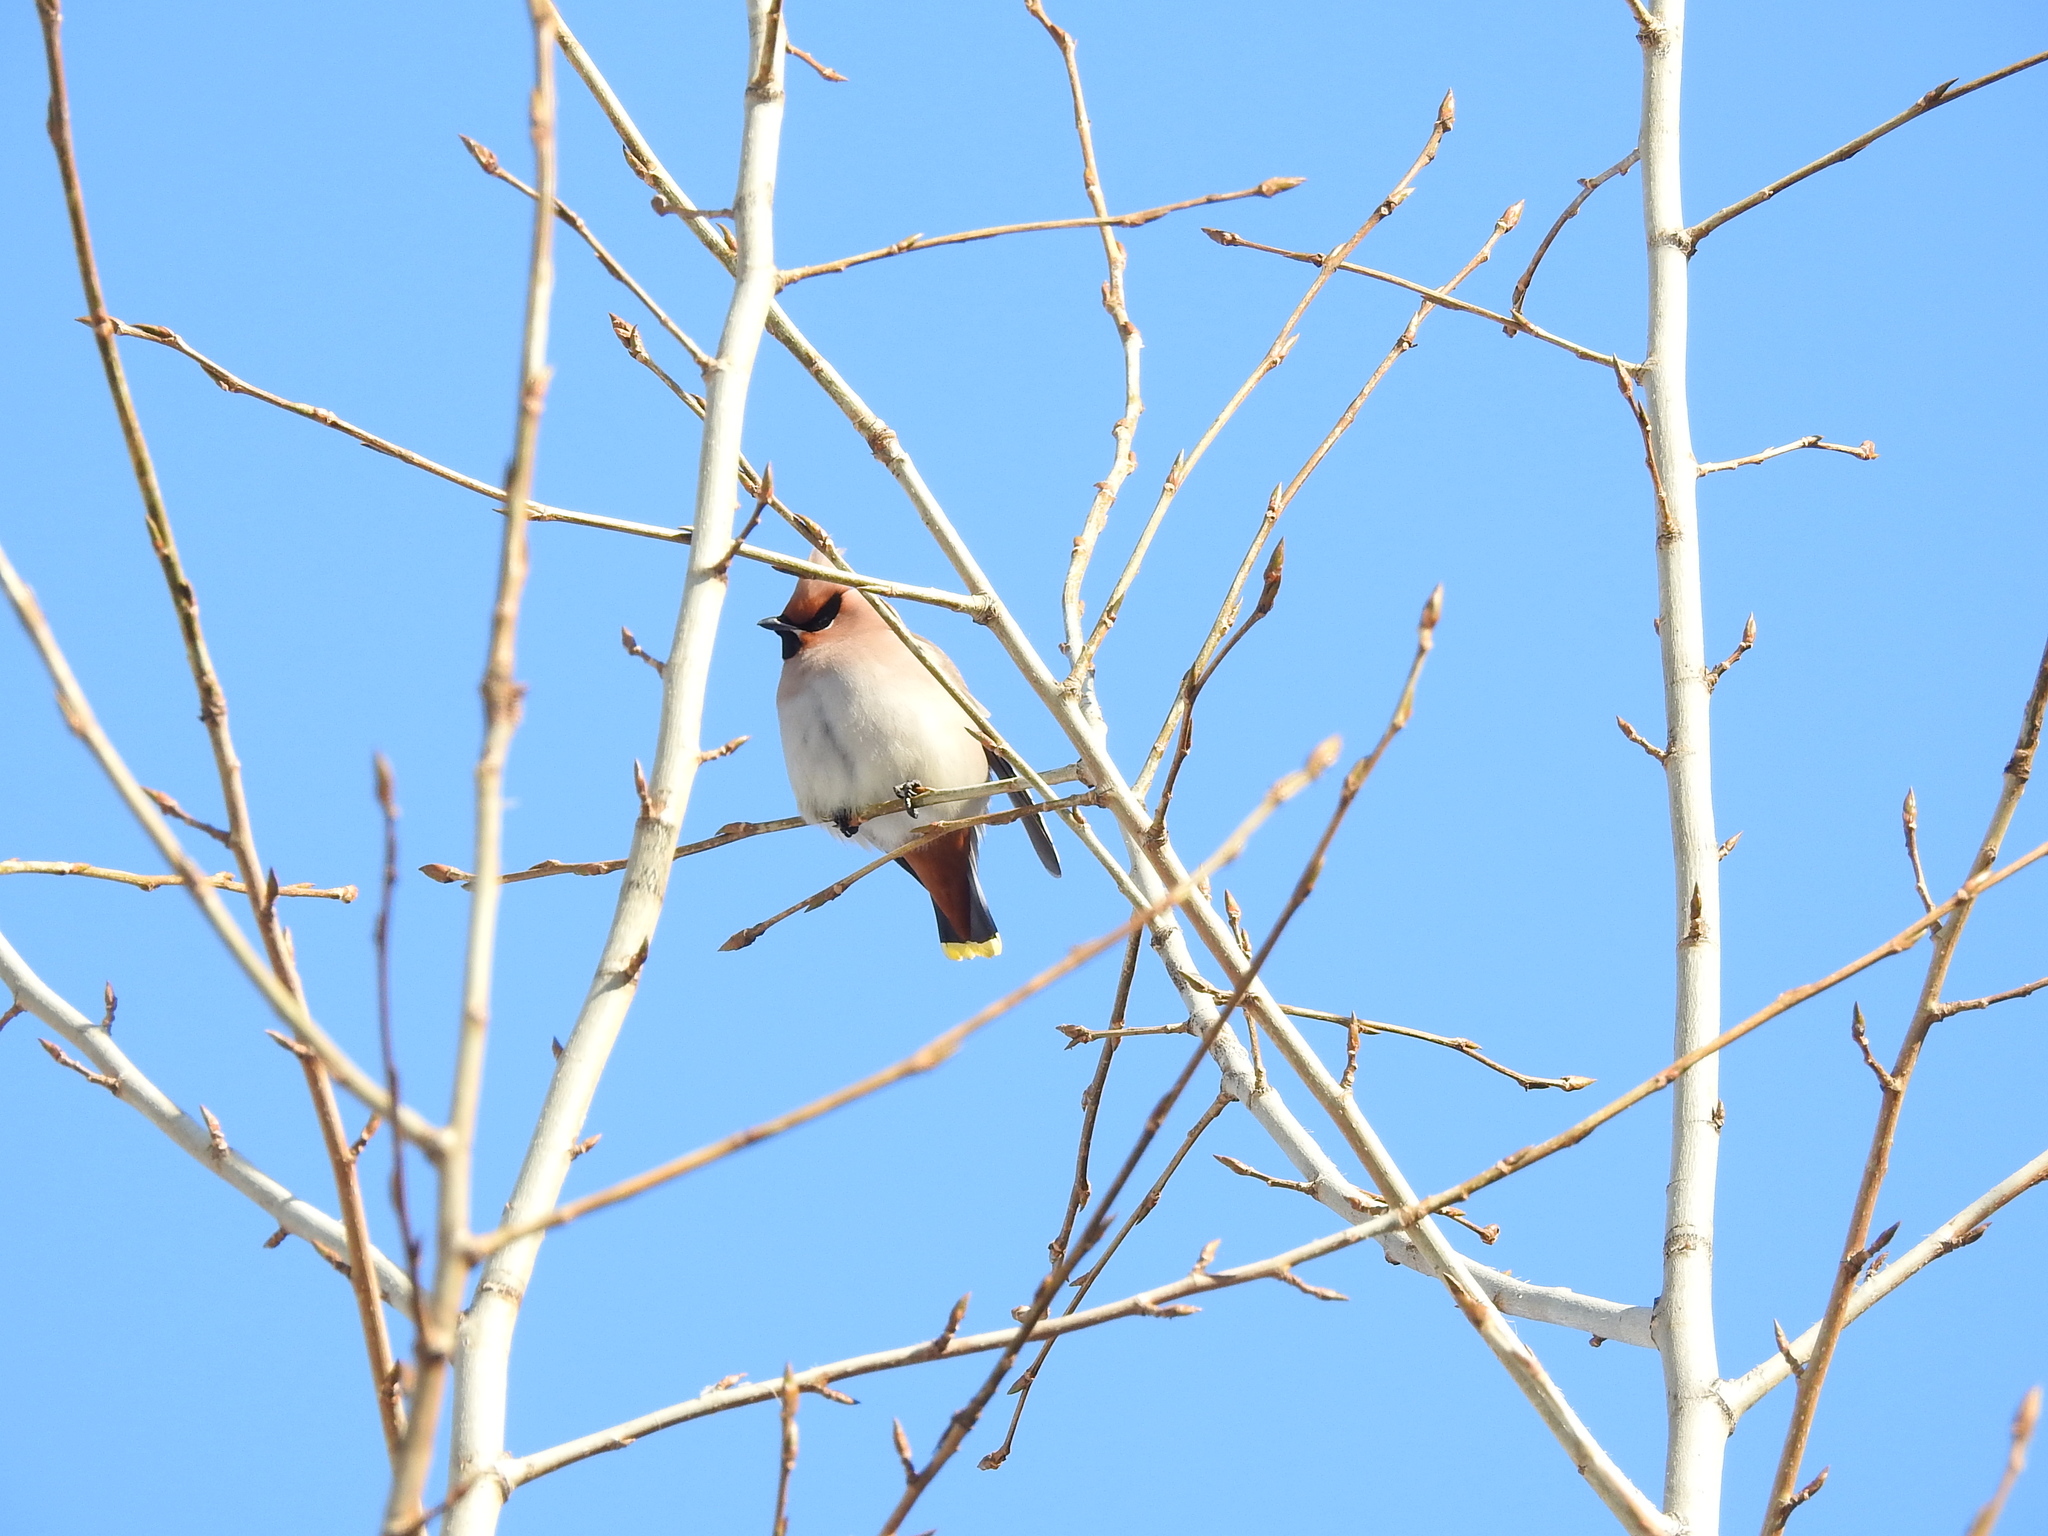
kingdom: Animalia
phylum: Chordata
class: Aves
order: Passeriformes
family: Bombycillidae
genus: Bombycilla
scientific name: Bombycilla garrulus
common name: Bohemian waxwing
